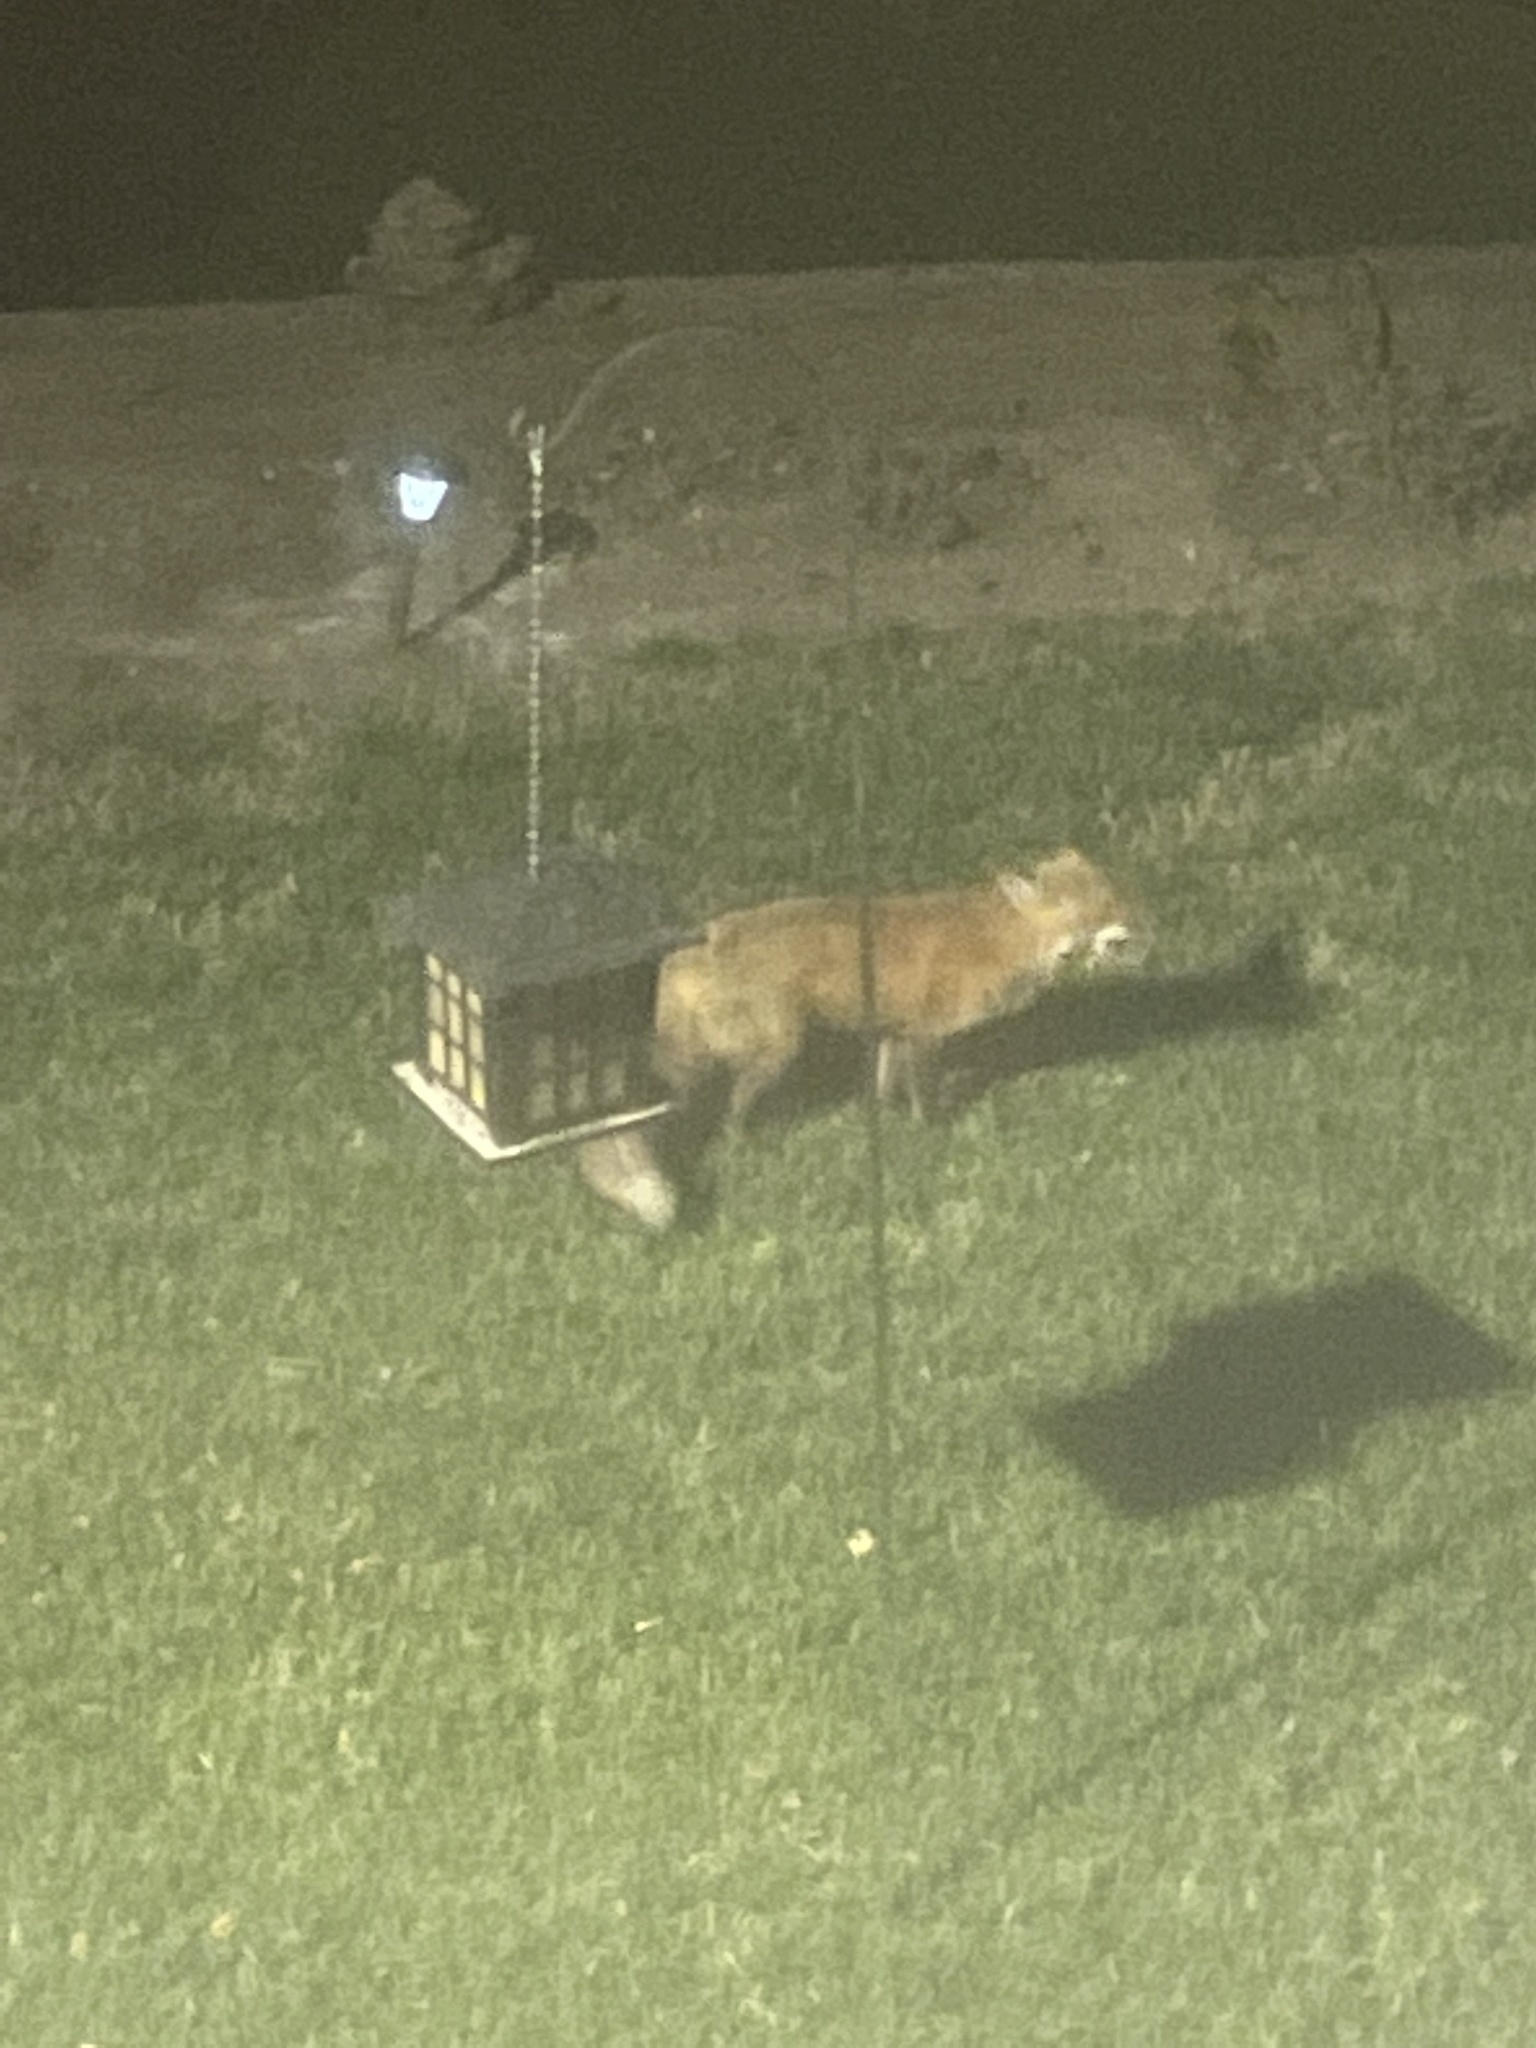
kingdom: Animalia
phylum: Chordata
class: Mammalia
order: Carnivora
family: Canidae
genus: Vulpes
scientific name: Vulpes vulpes
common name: Red fox
